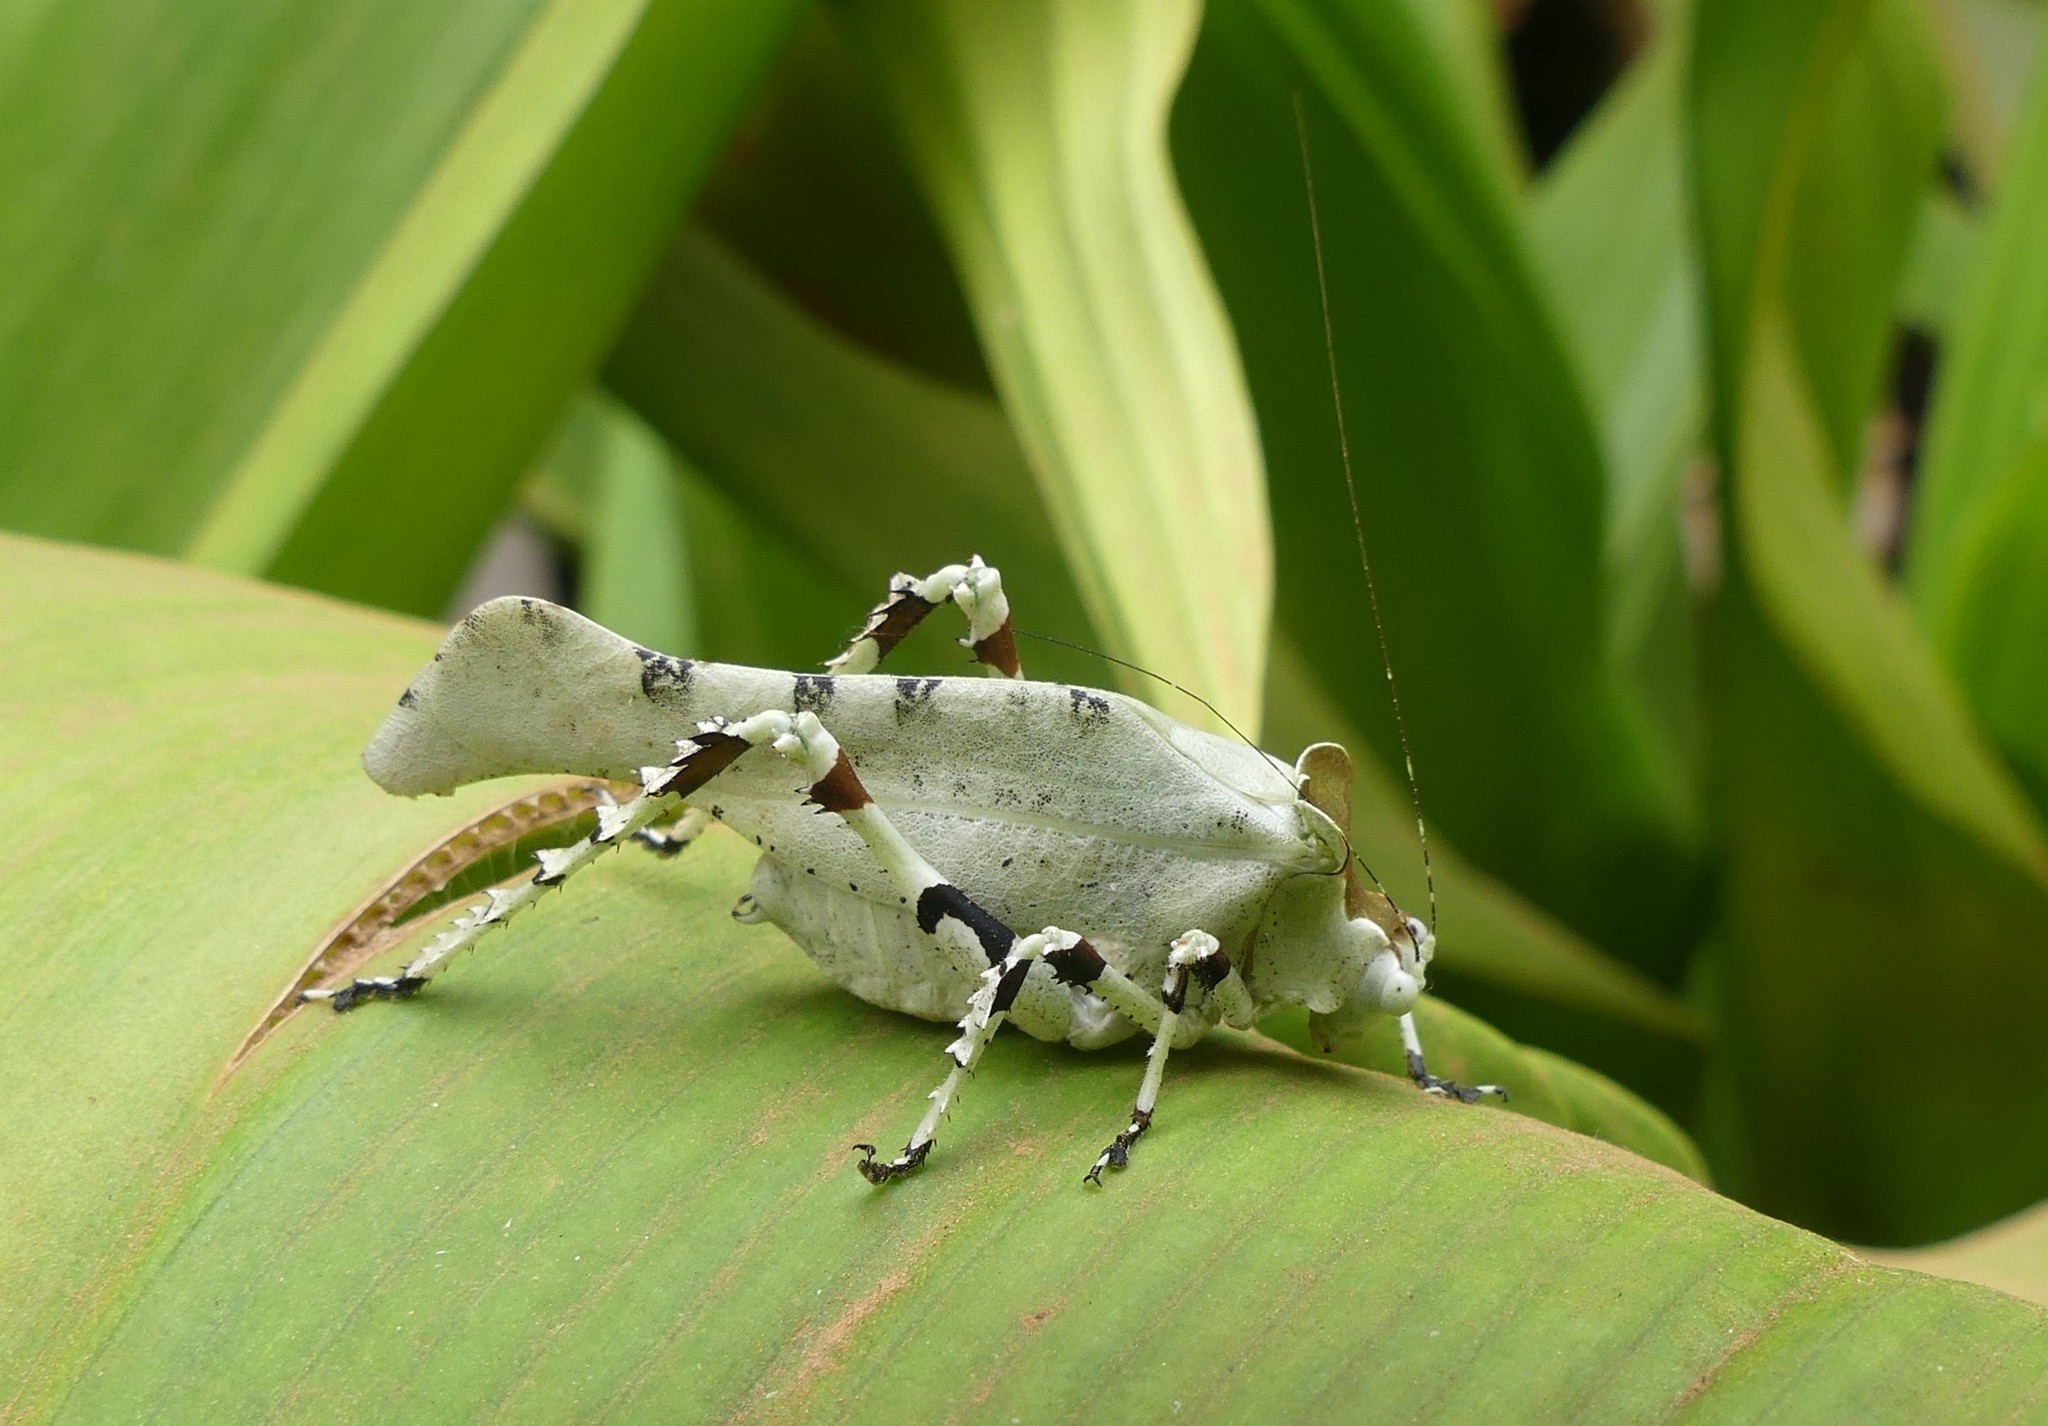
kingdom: Animalia
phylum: Arthropoda
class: Insecta
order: Orthoptera
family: Tettigoniidae
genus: Gelotopoia
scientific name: Gelotopoia amabilis
